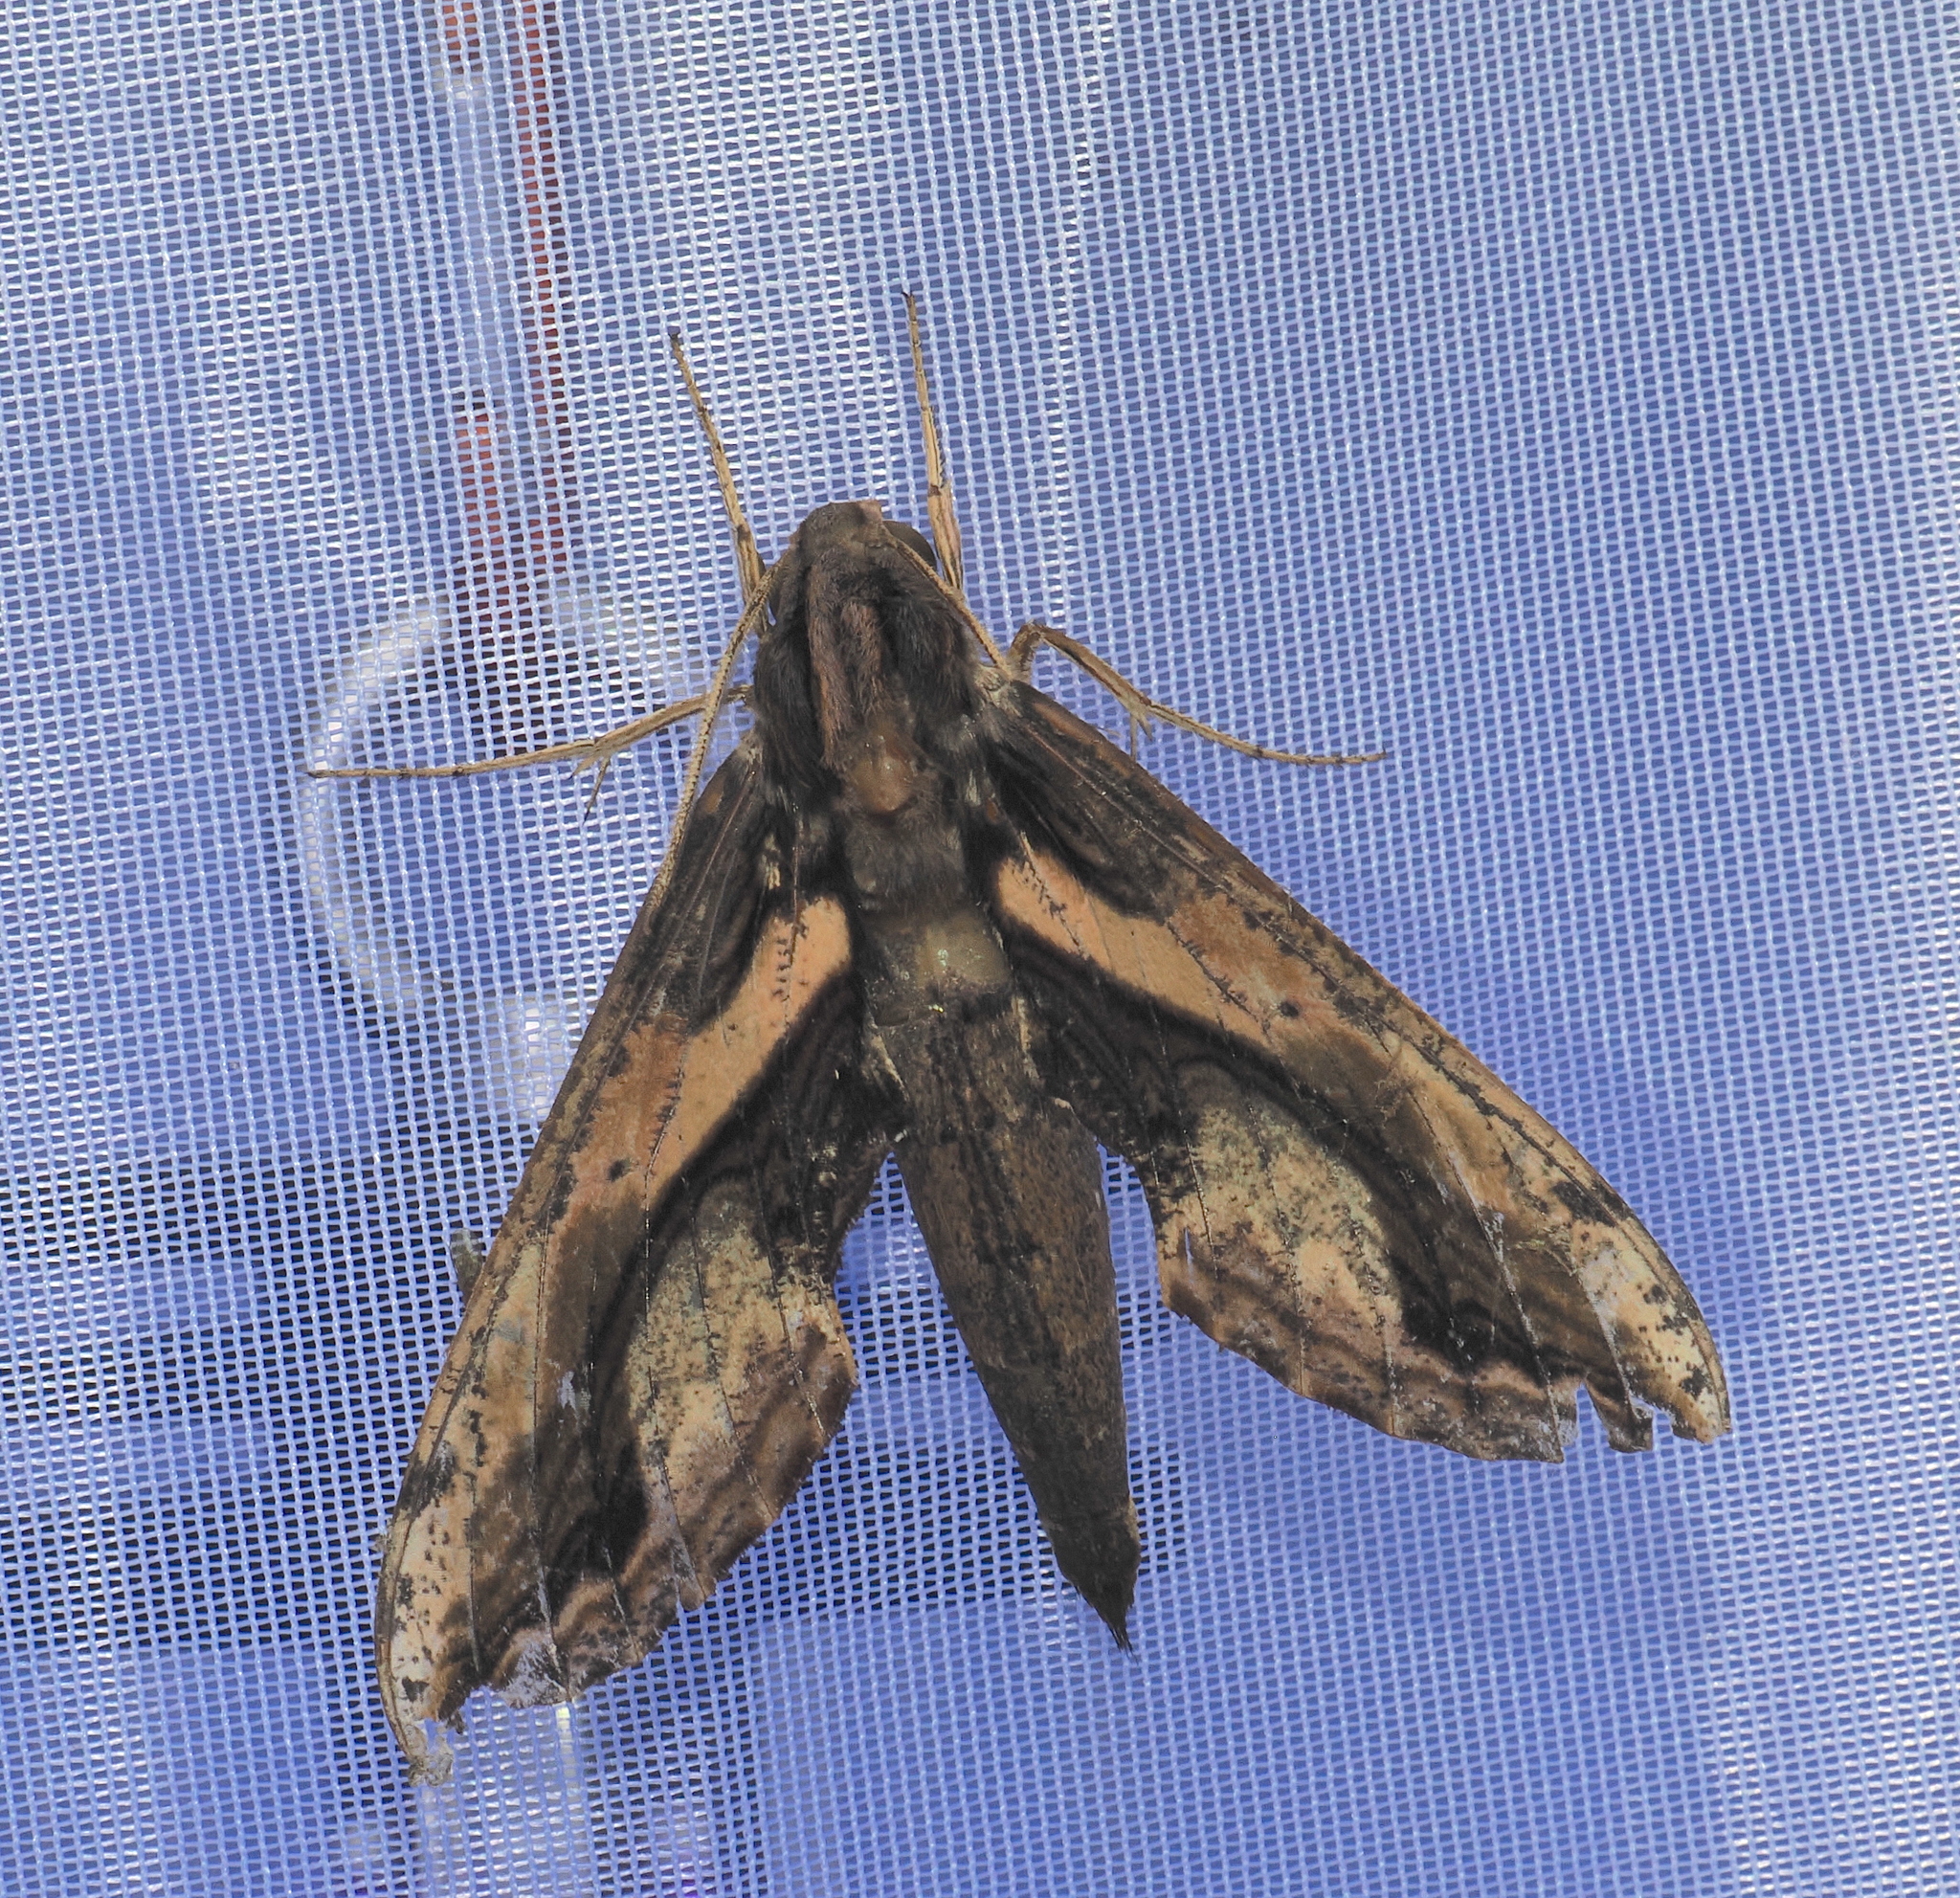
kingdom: Animalia
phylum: Arthropoda
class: Insecta
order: Lepidoptera
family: Sphingidae
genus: Xylophanes
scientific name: Xylophanes ceratomioides
